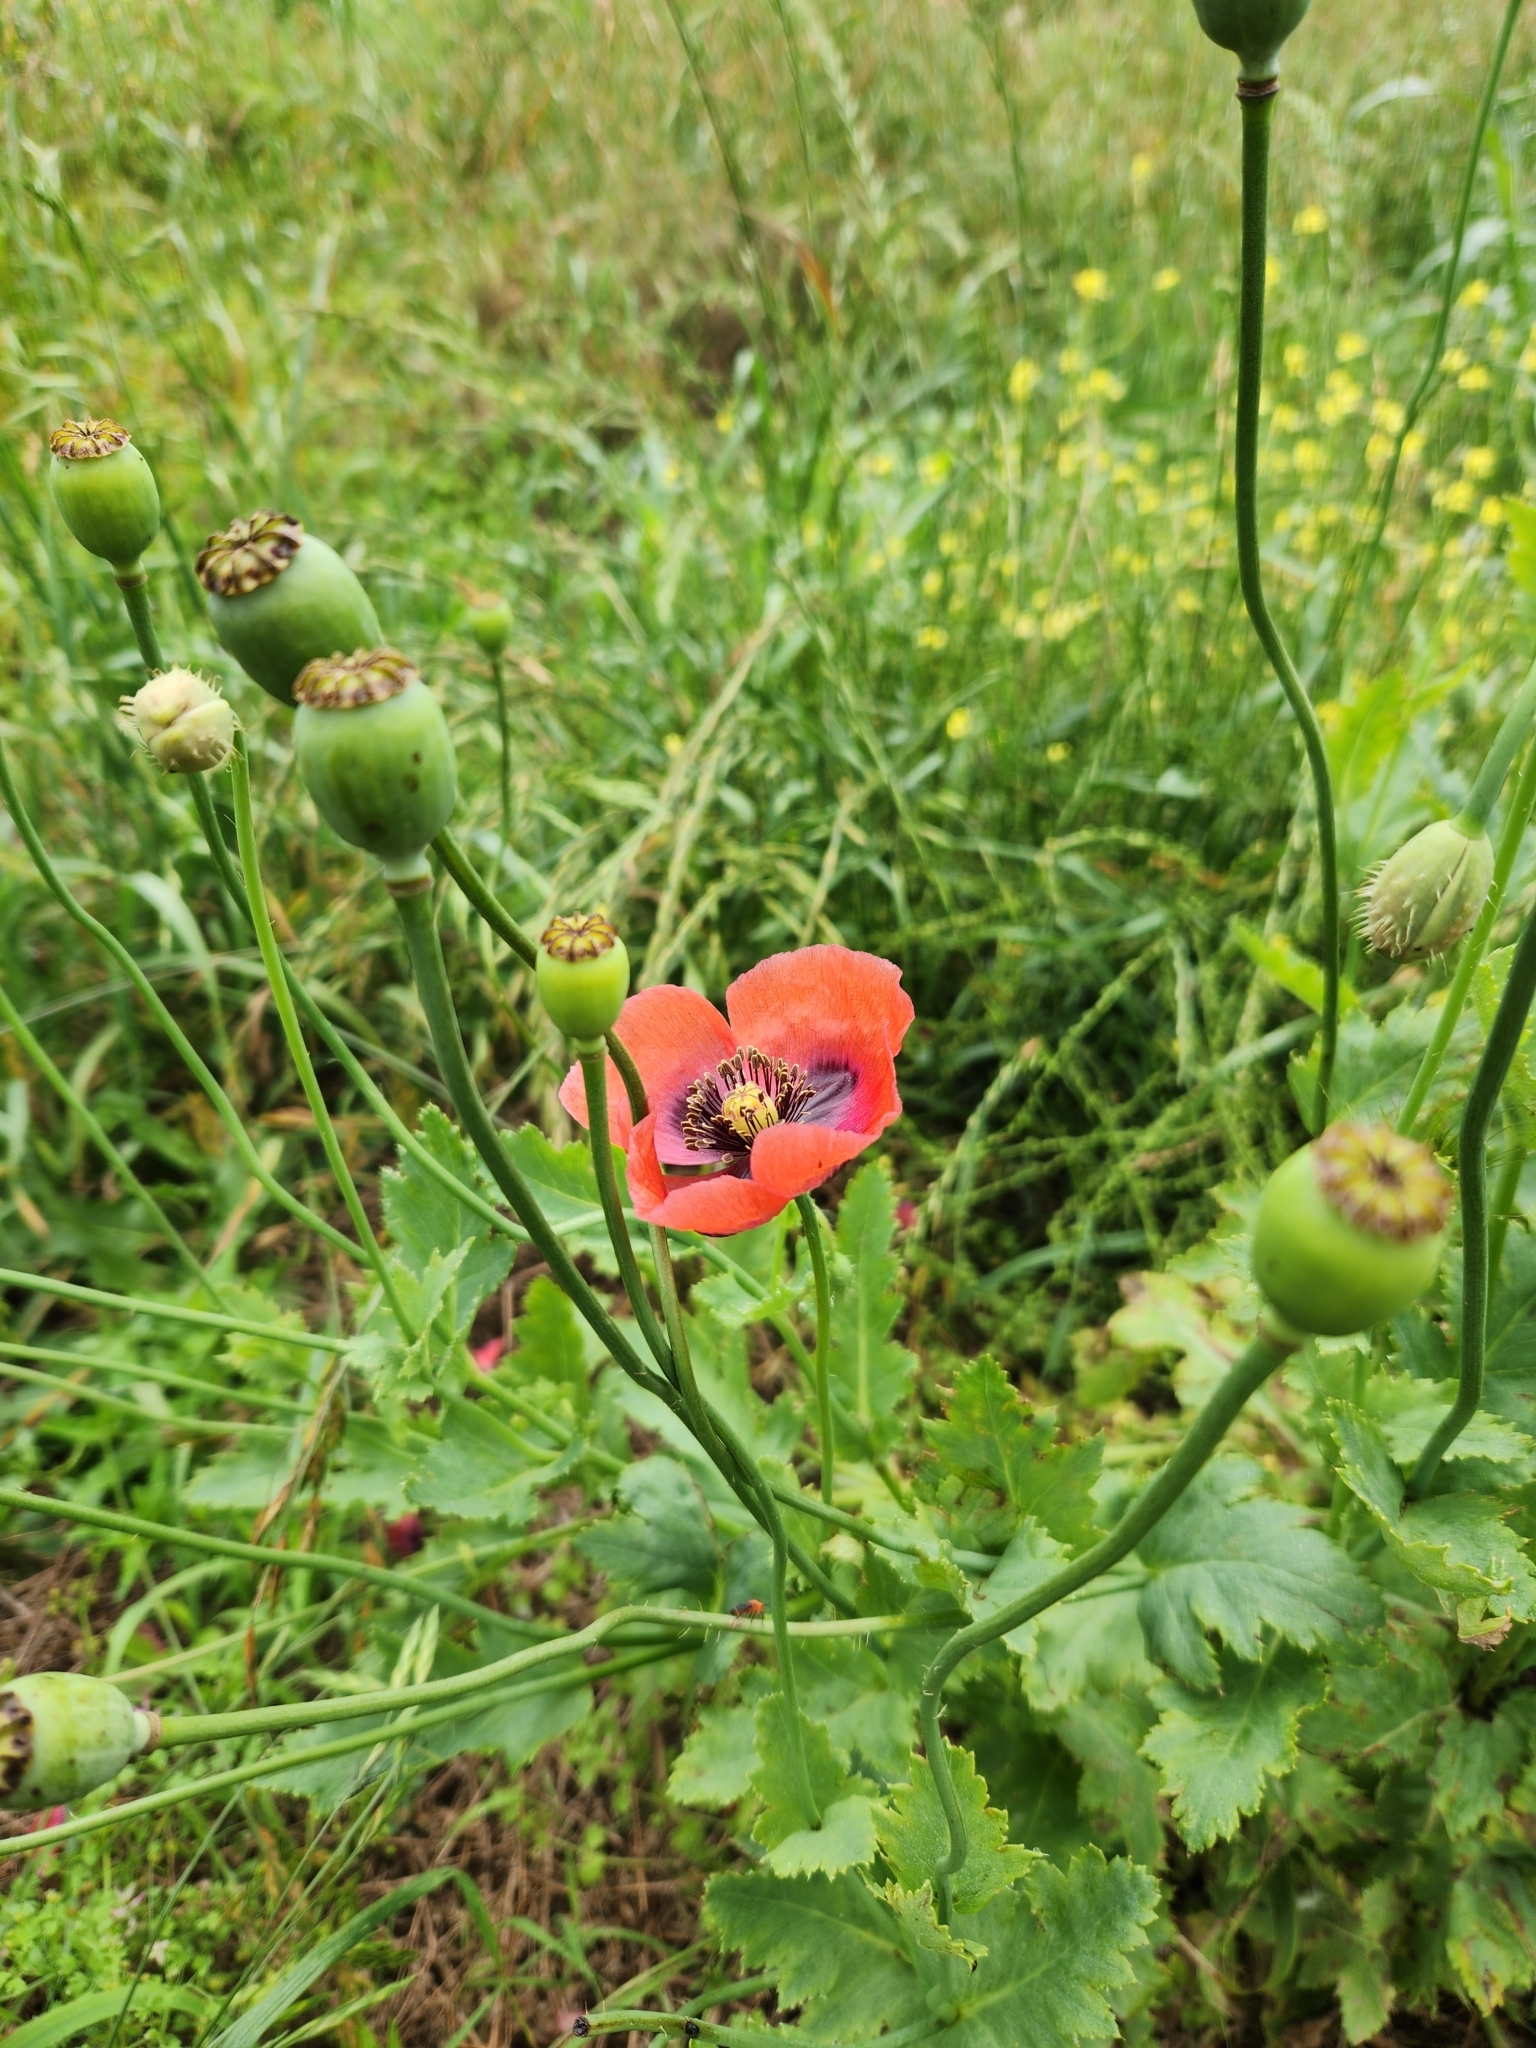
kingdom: Plantae
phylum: Tracheophyta
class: Magnoliopsida
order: Ranunculales
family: Papaveraceae
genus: Papaver
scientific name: Papaver somniferum
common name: Opium poppy
